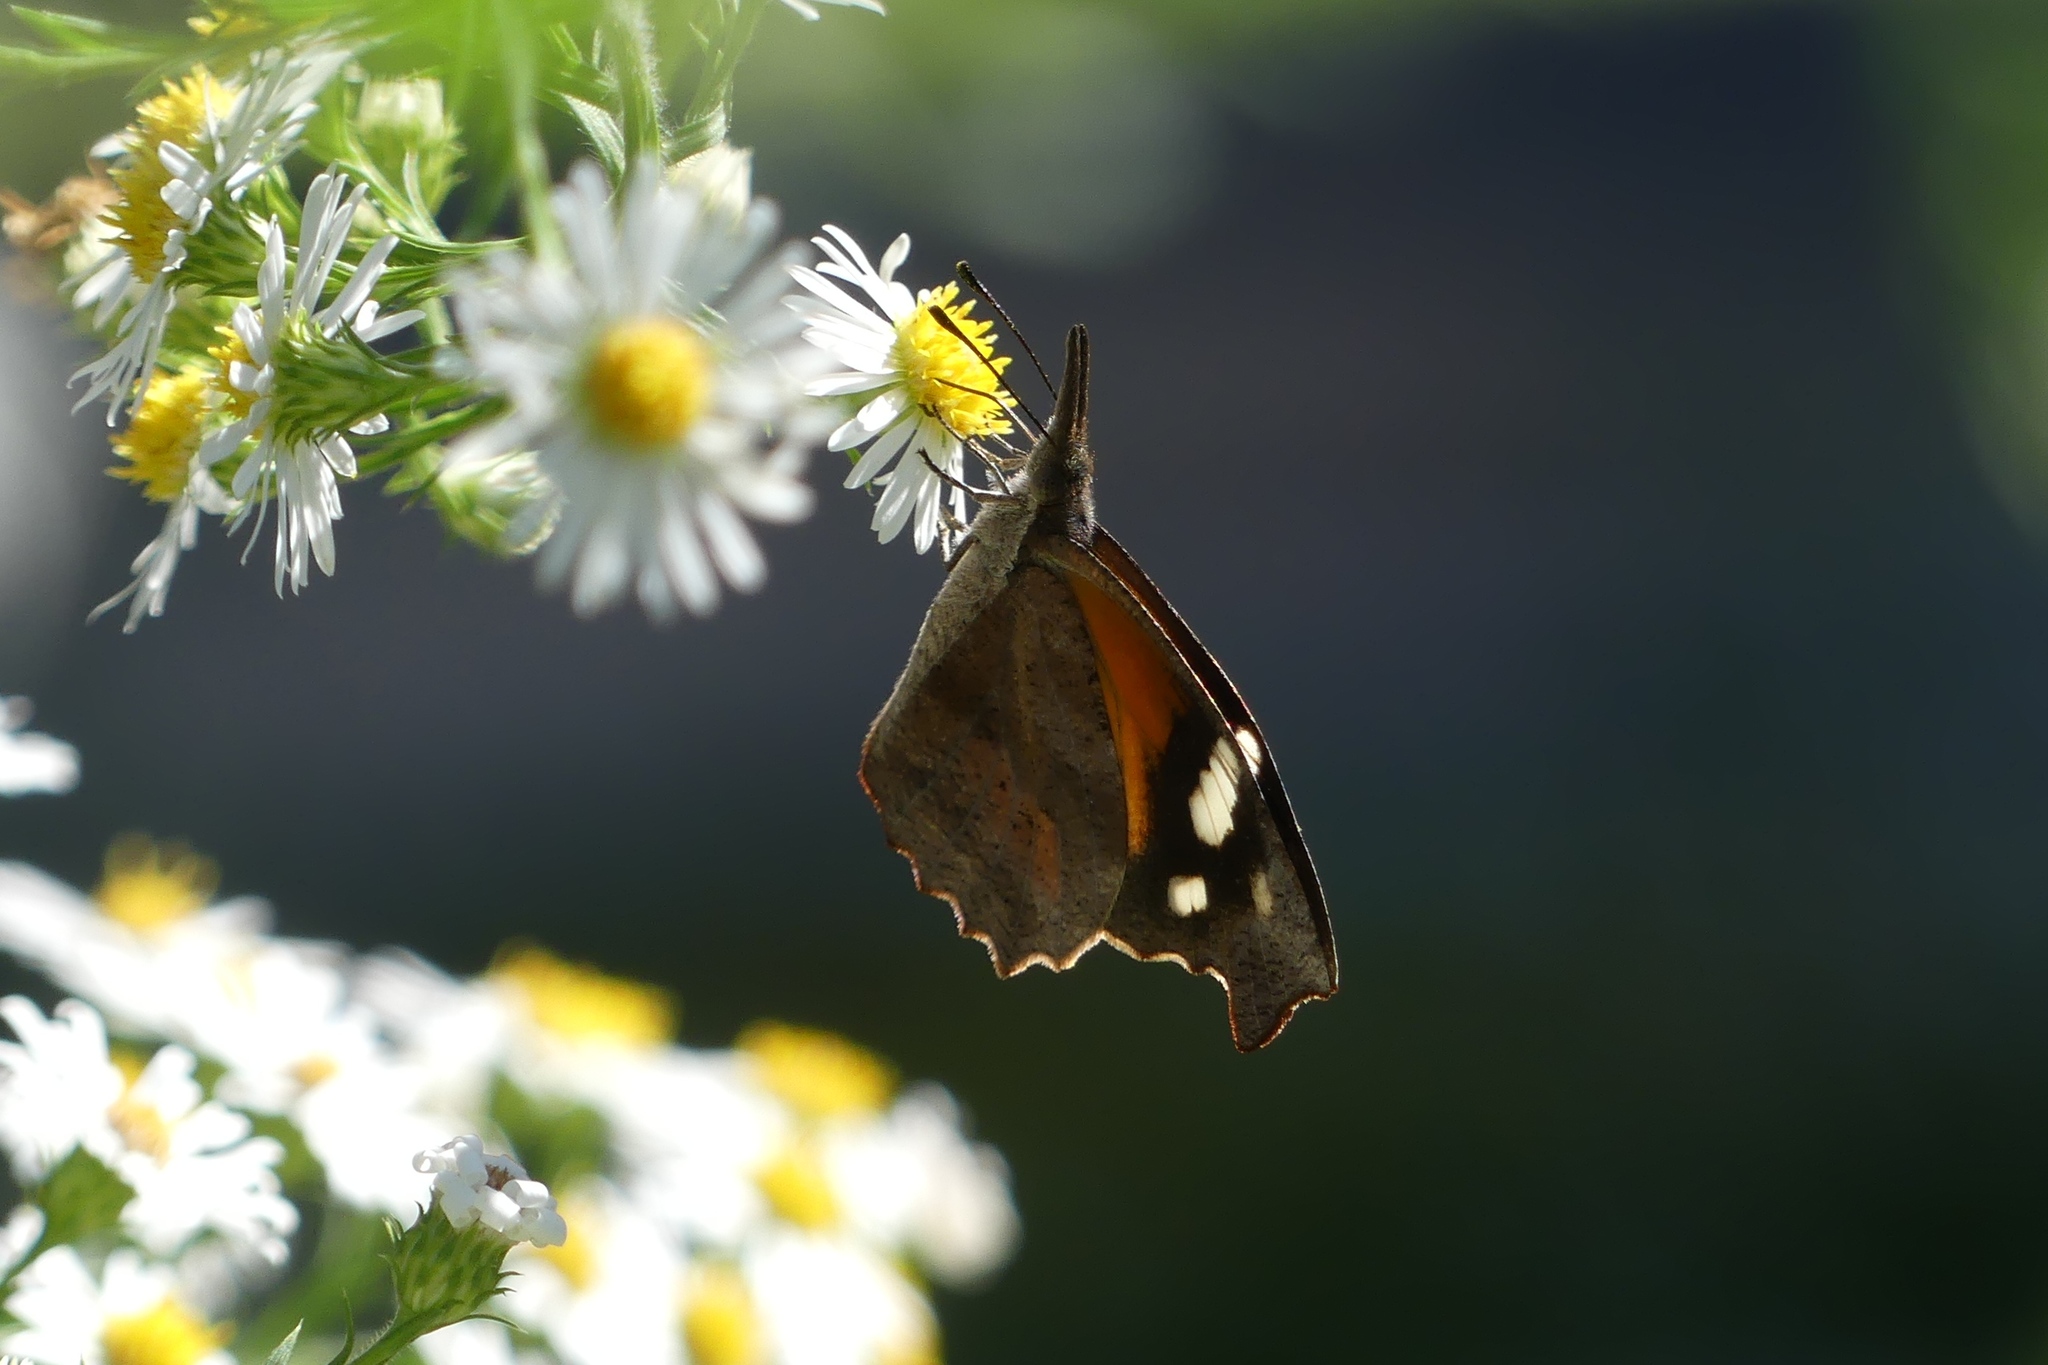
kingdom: Animalia
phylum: Arthropoda
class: Insecta
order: Lepidoptera
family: Nymphalidae
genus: Libytheana
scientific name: Libytheana carinenta
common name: American snout
